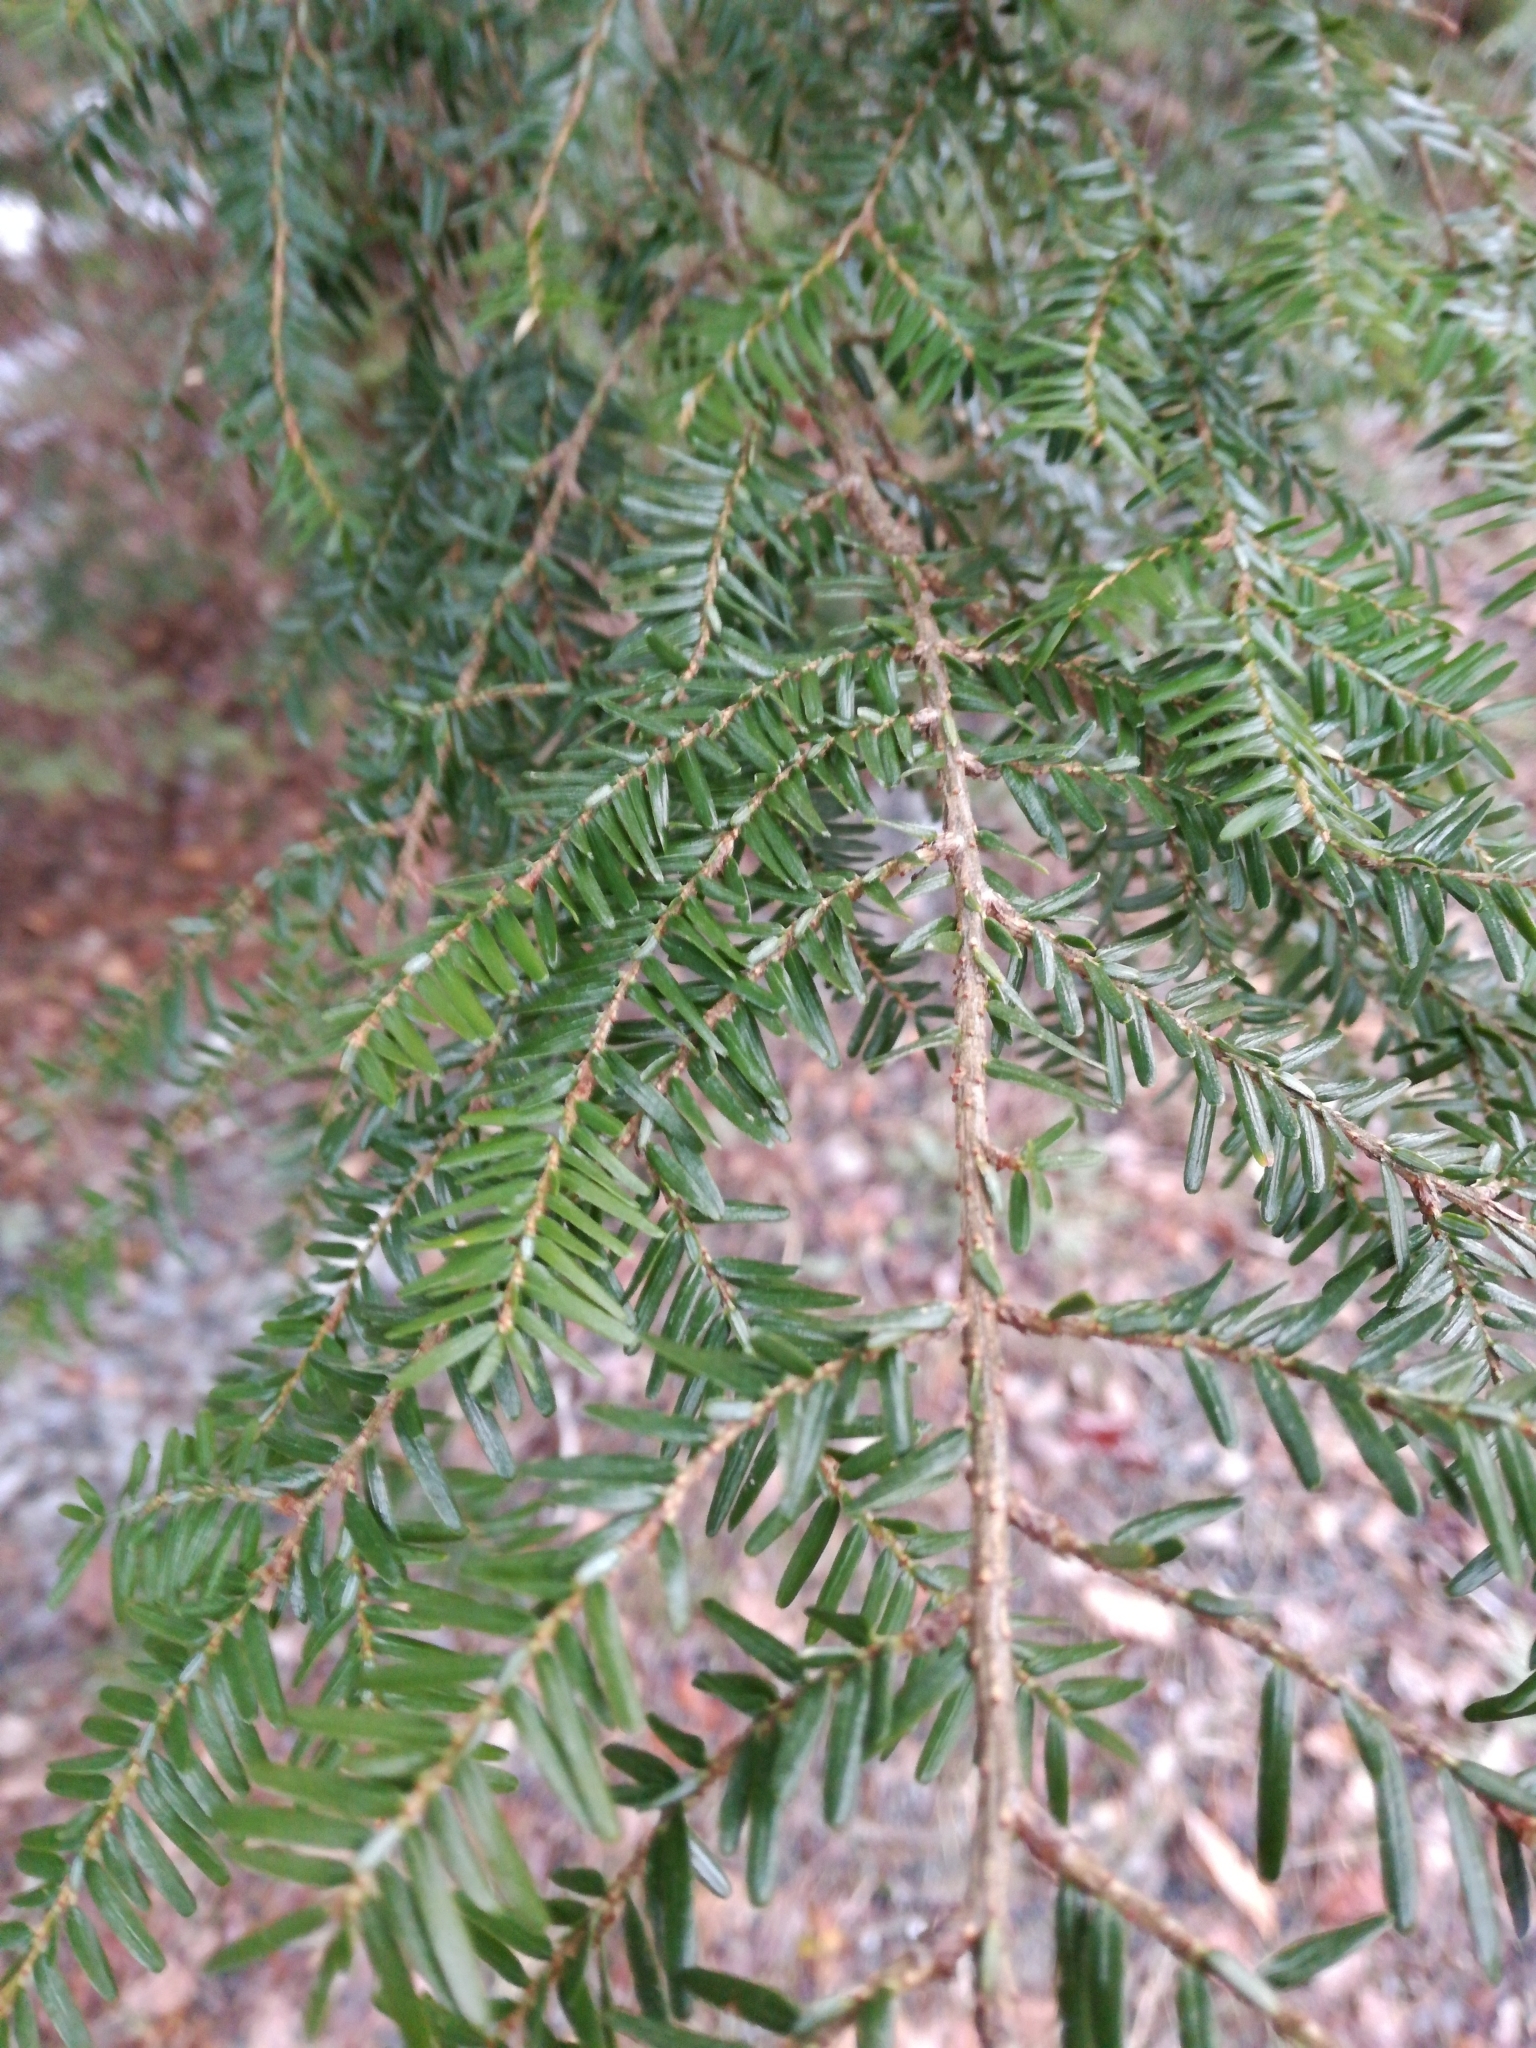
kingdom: Plantae
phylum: Tracheophyta
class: Pinopsida
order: Pinales
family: Pinaceae
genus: Tsuga
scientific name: Tsuga canadensis
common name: Eastern hemlock
